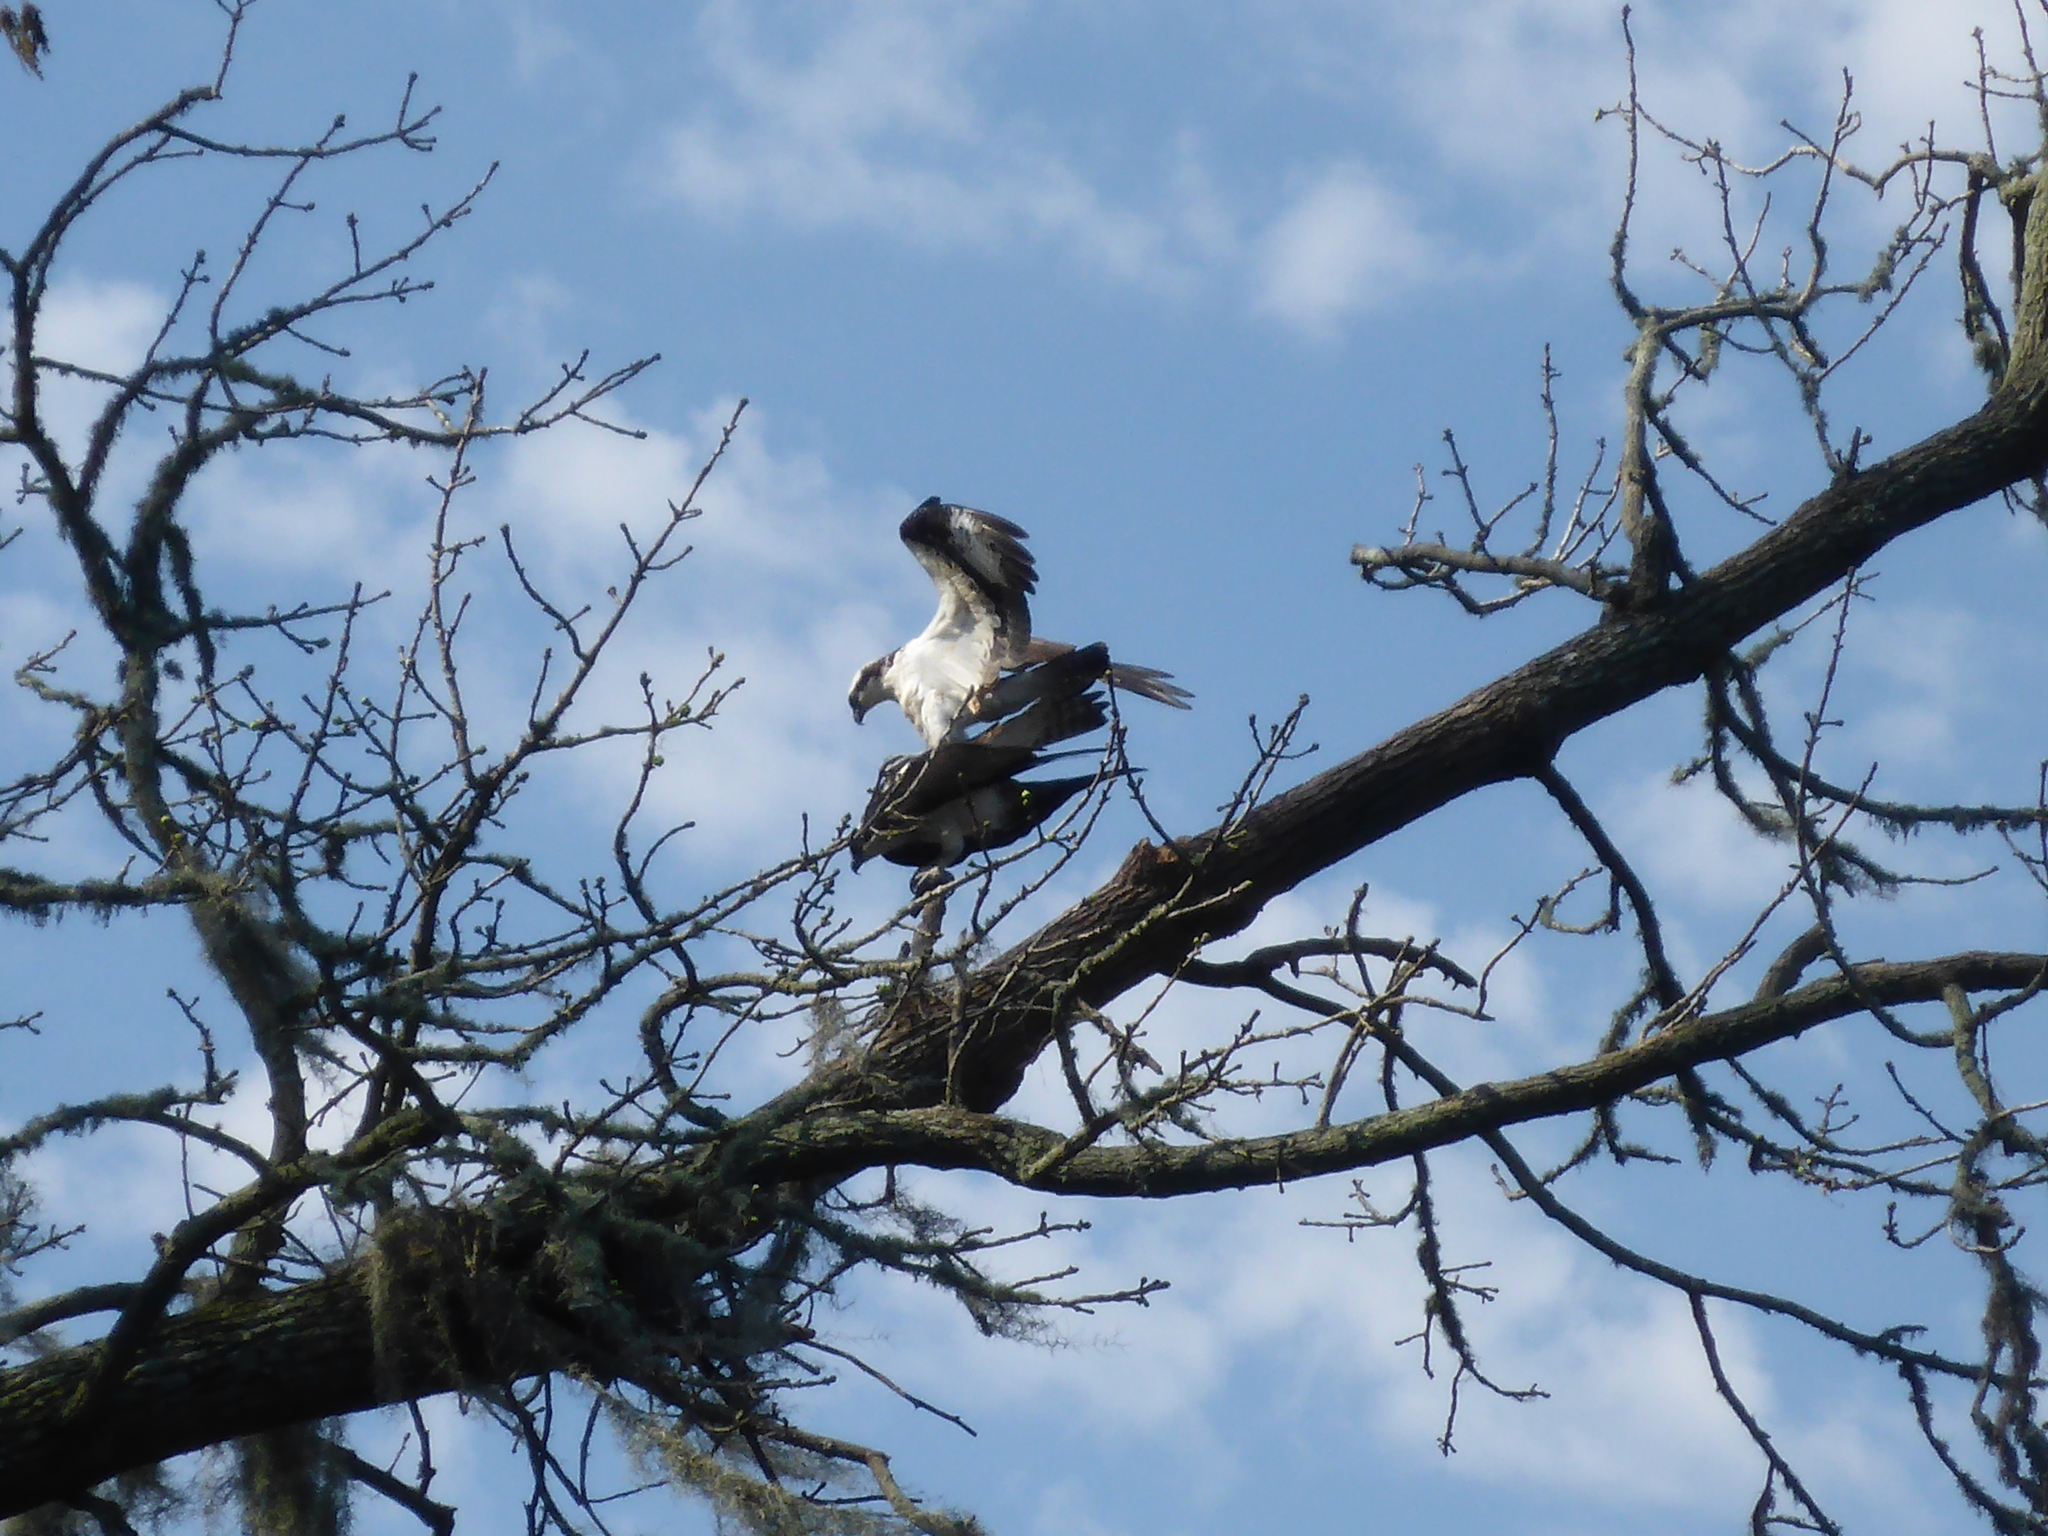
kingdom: Animalia
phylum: Chordata
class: Aves
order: Accipitriformes
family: Pandionidae
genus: Pandion
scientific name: Pandion haliaetus
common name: Osprey
